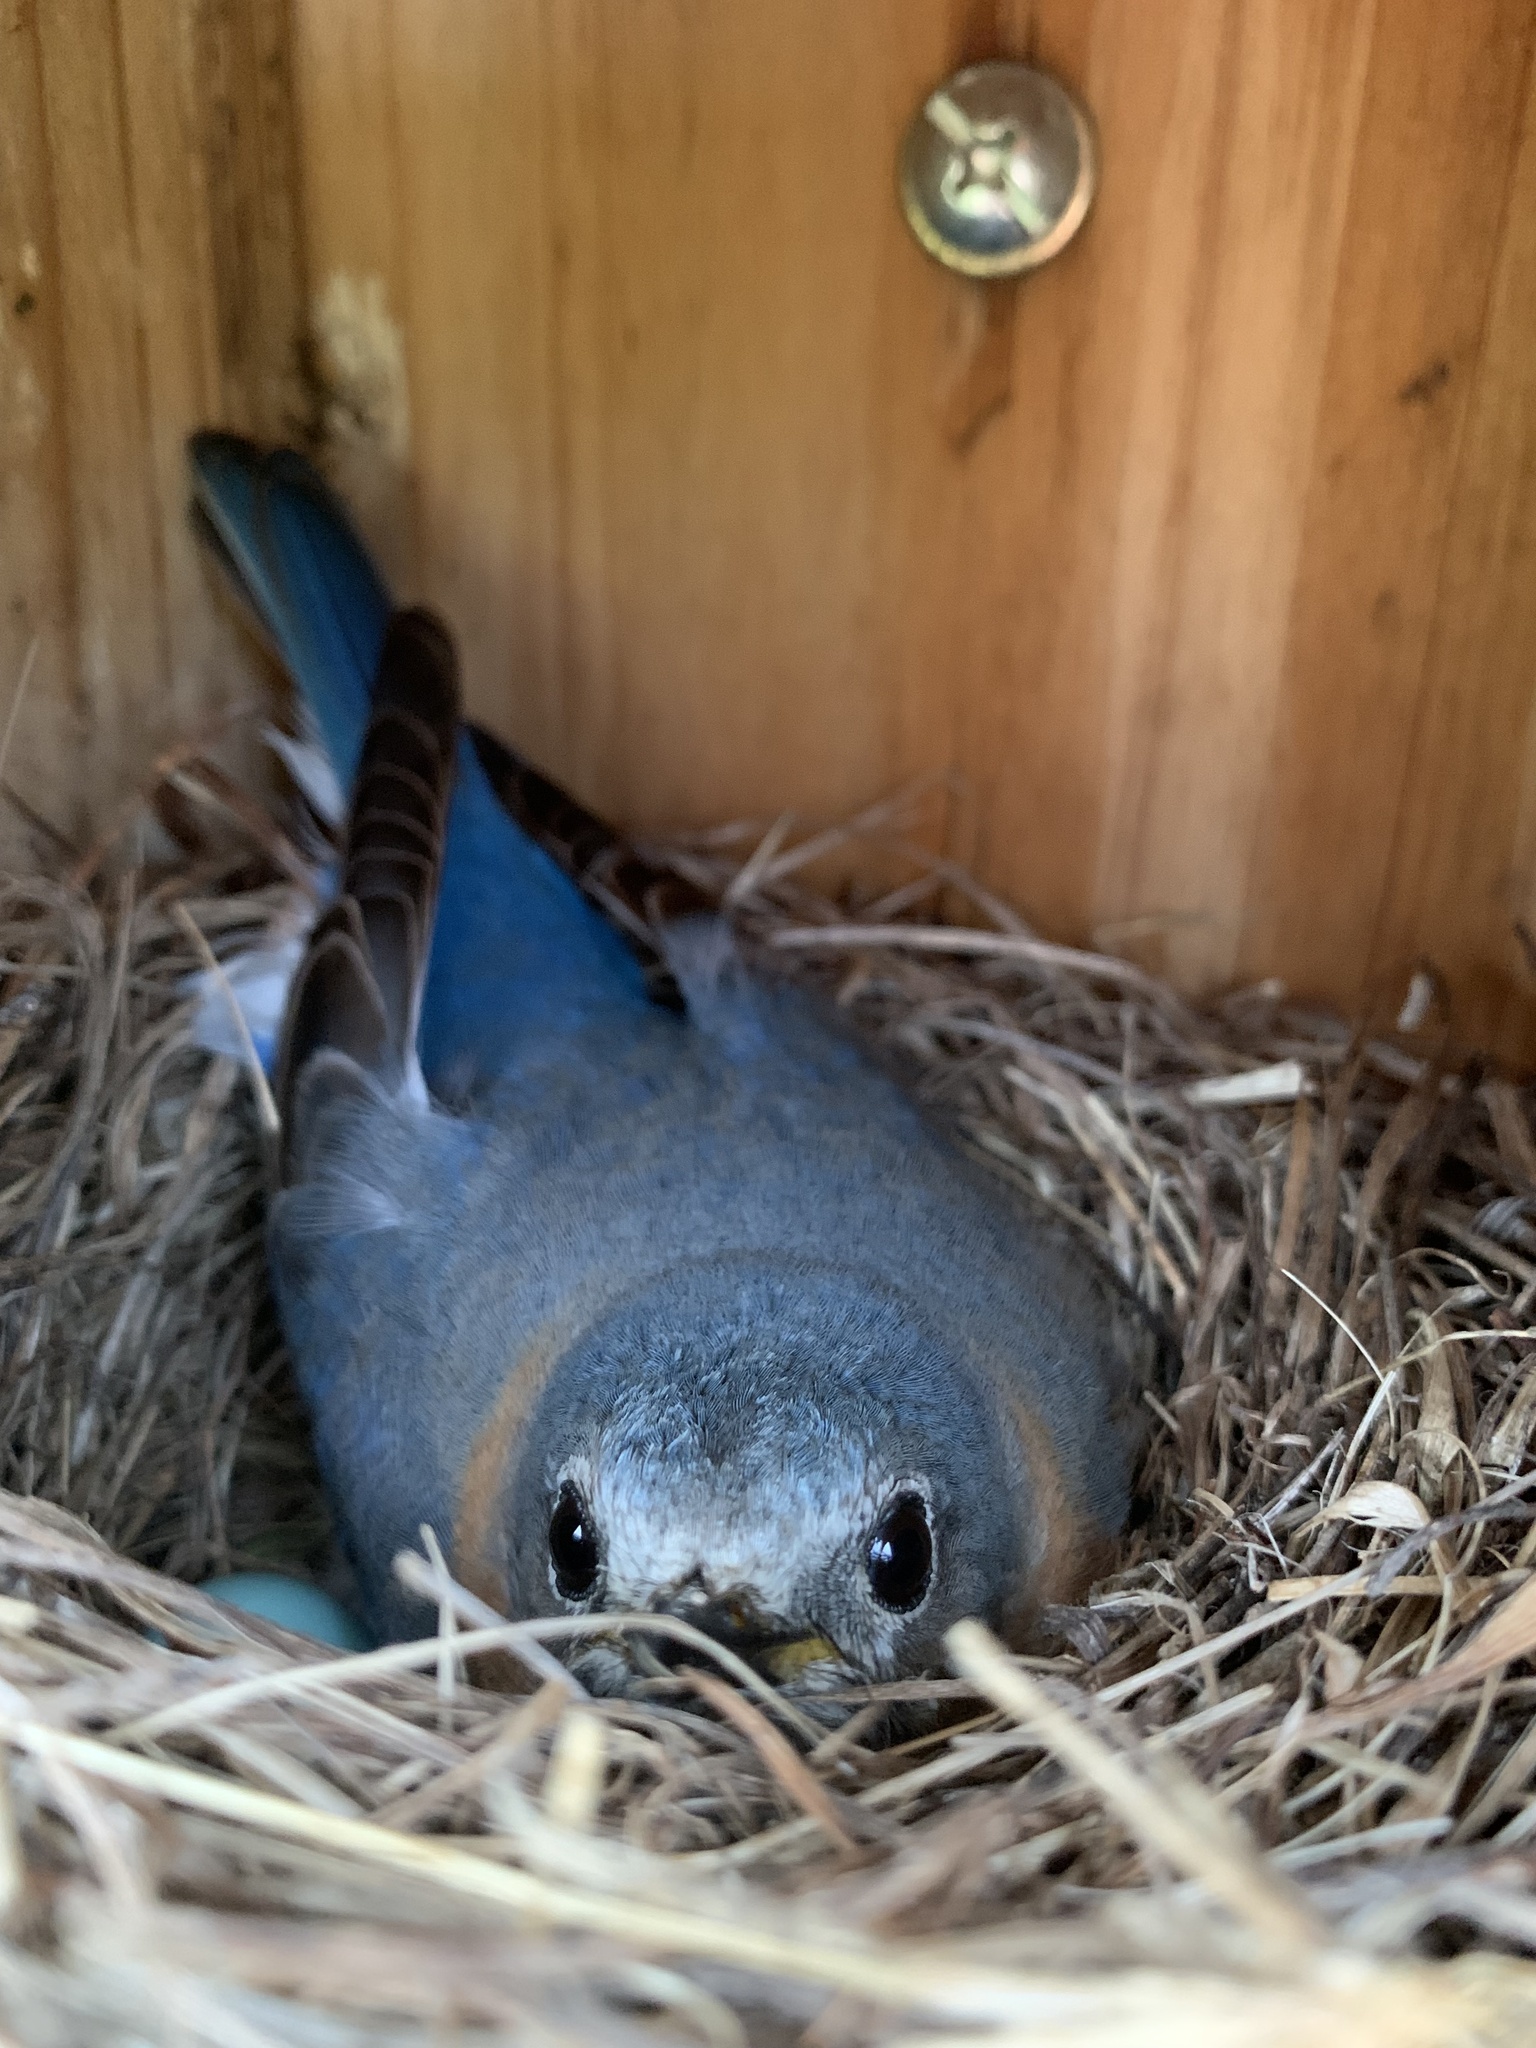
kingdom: Animalia
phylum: Chordata
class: Aves
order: Passeriformes
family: Turdidae
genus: Sialia
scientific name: Sialia sialis
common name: Eastern bluebird
